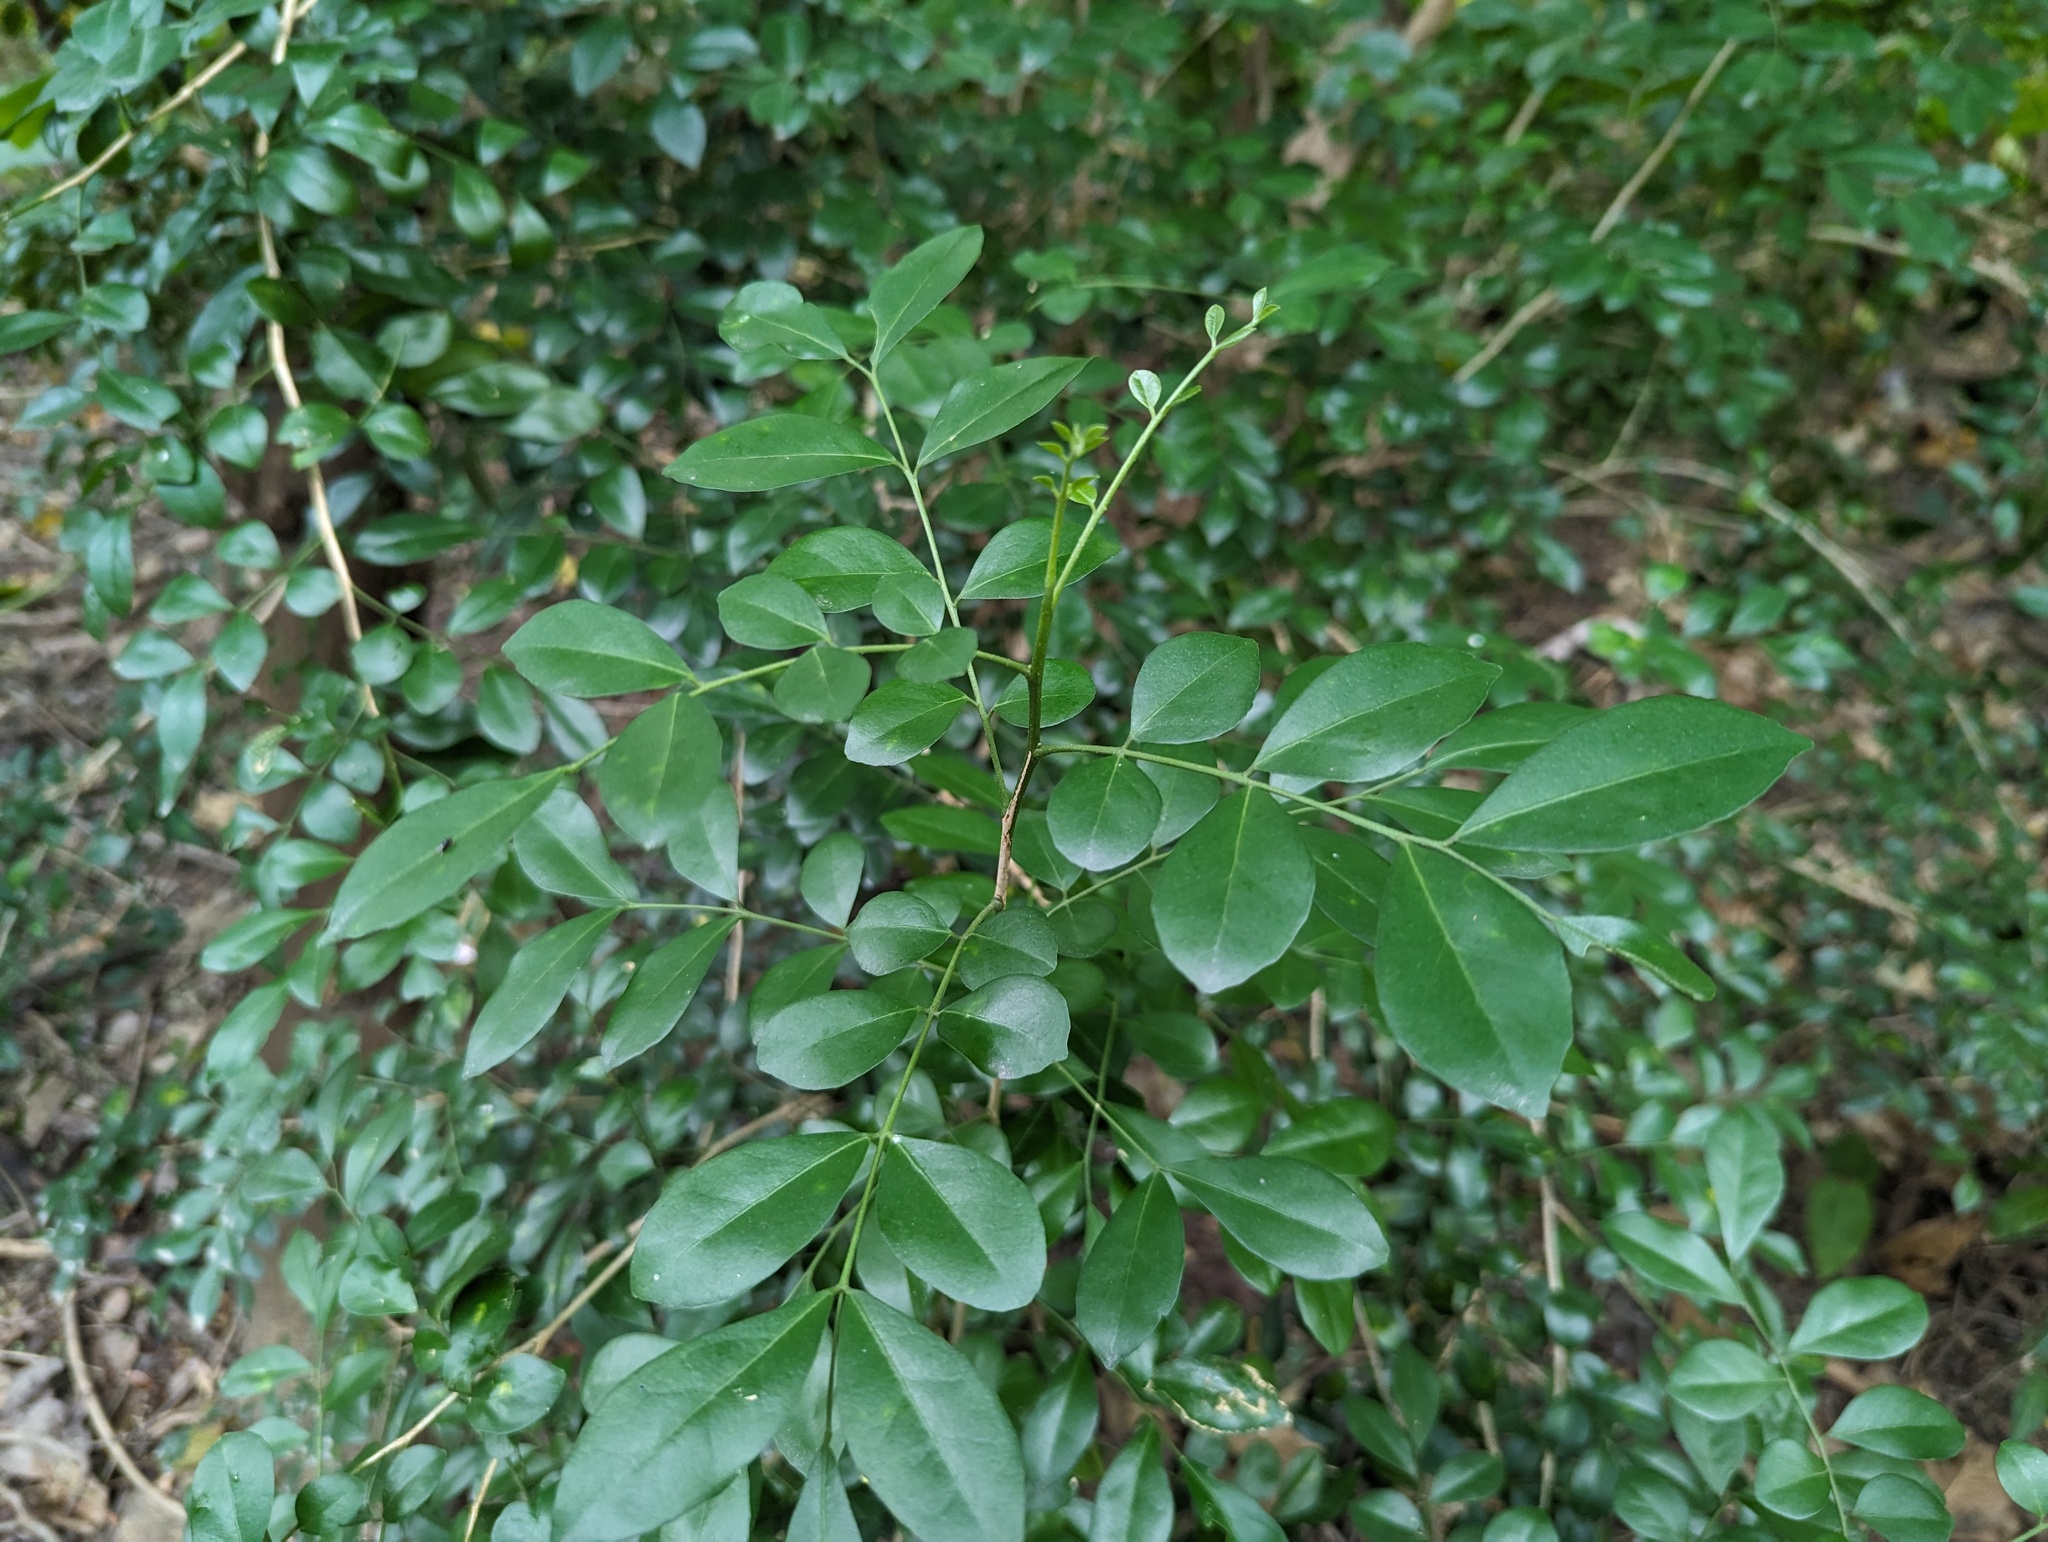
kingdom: Plantae
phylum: Tracheophyta
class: Magnoliopsida
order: Sapindales
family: Rutaceae
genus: Murraya
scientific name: Murraya paniculata
